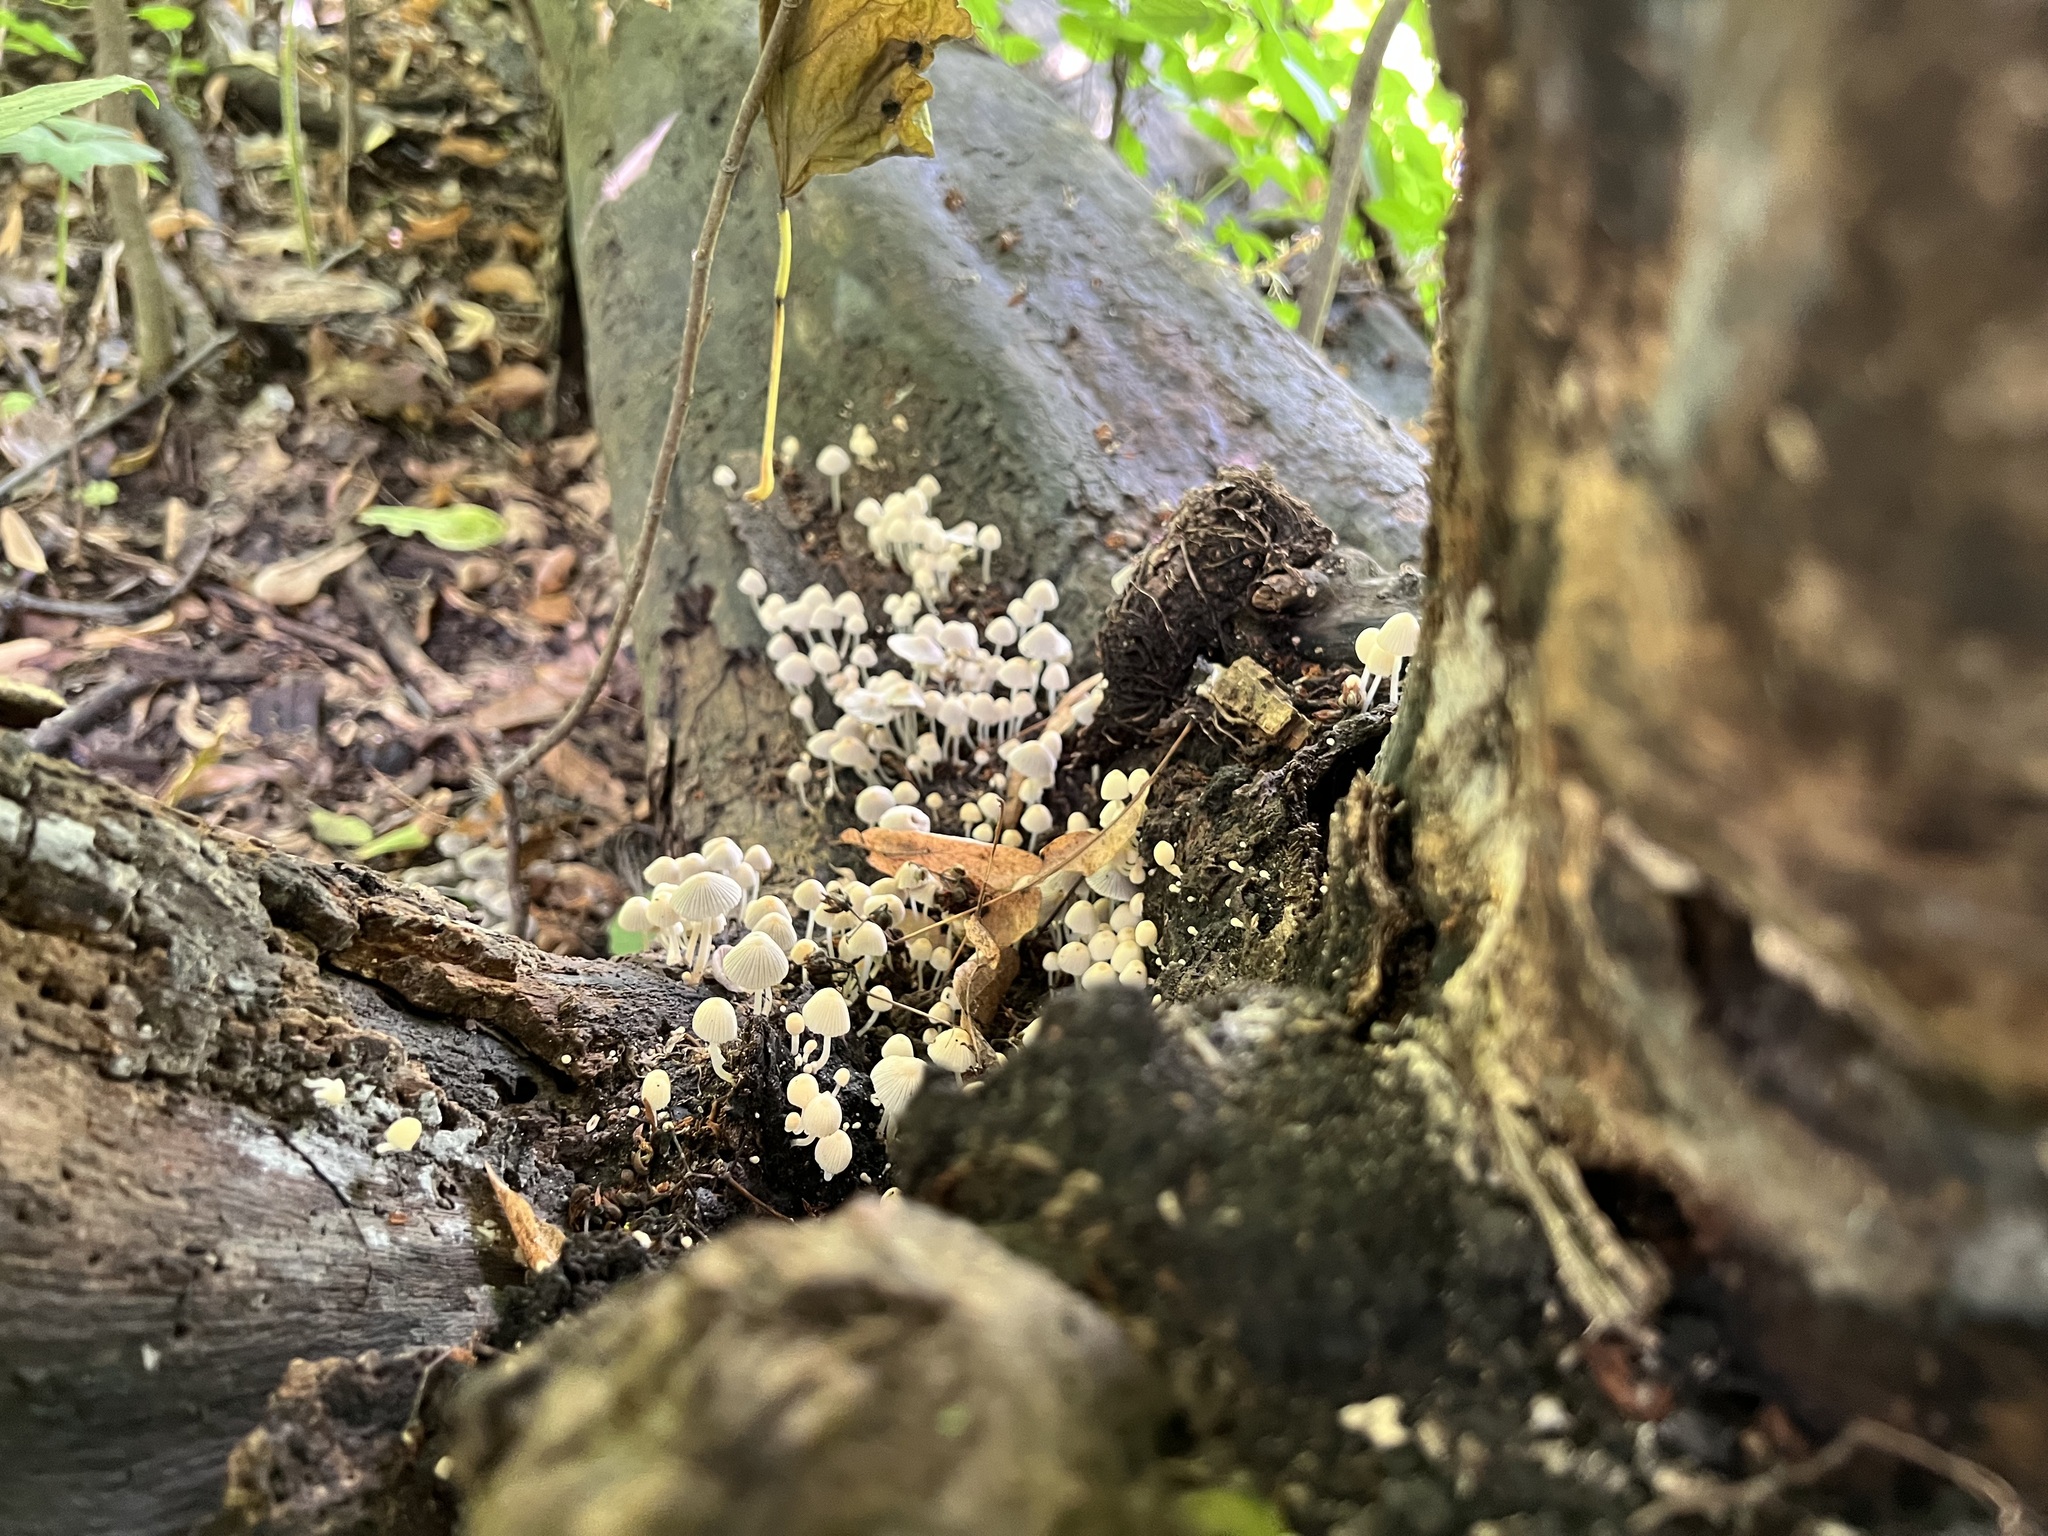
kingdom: Fungi
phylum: Basidiomycota
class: Agaricomycetes
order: Agaricales
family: Psathyrellaceae
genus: Coprinellus
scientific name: Coprinellus disseminatus
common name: Fairies' bonnets
